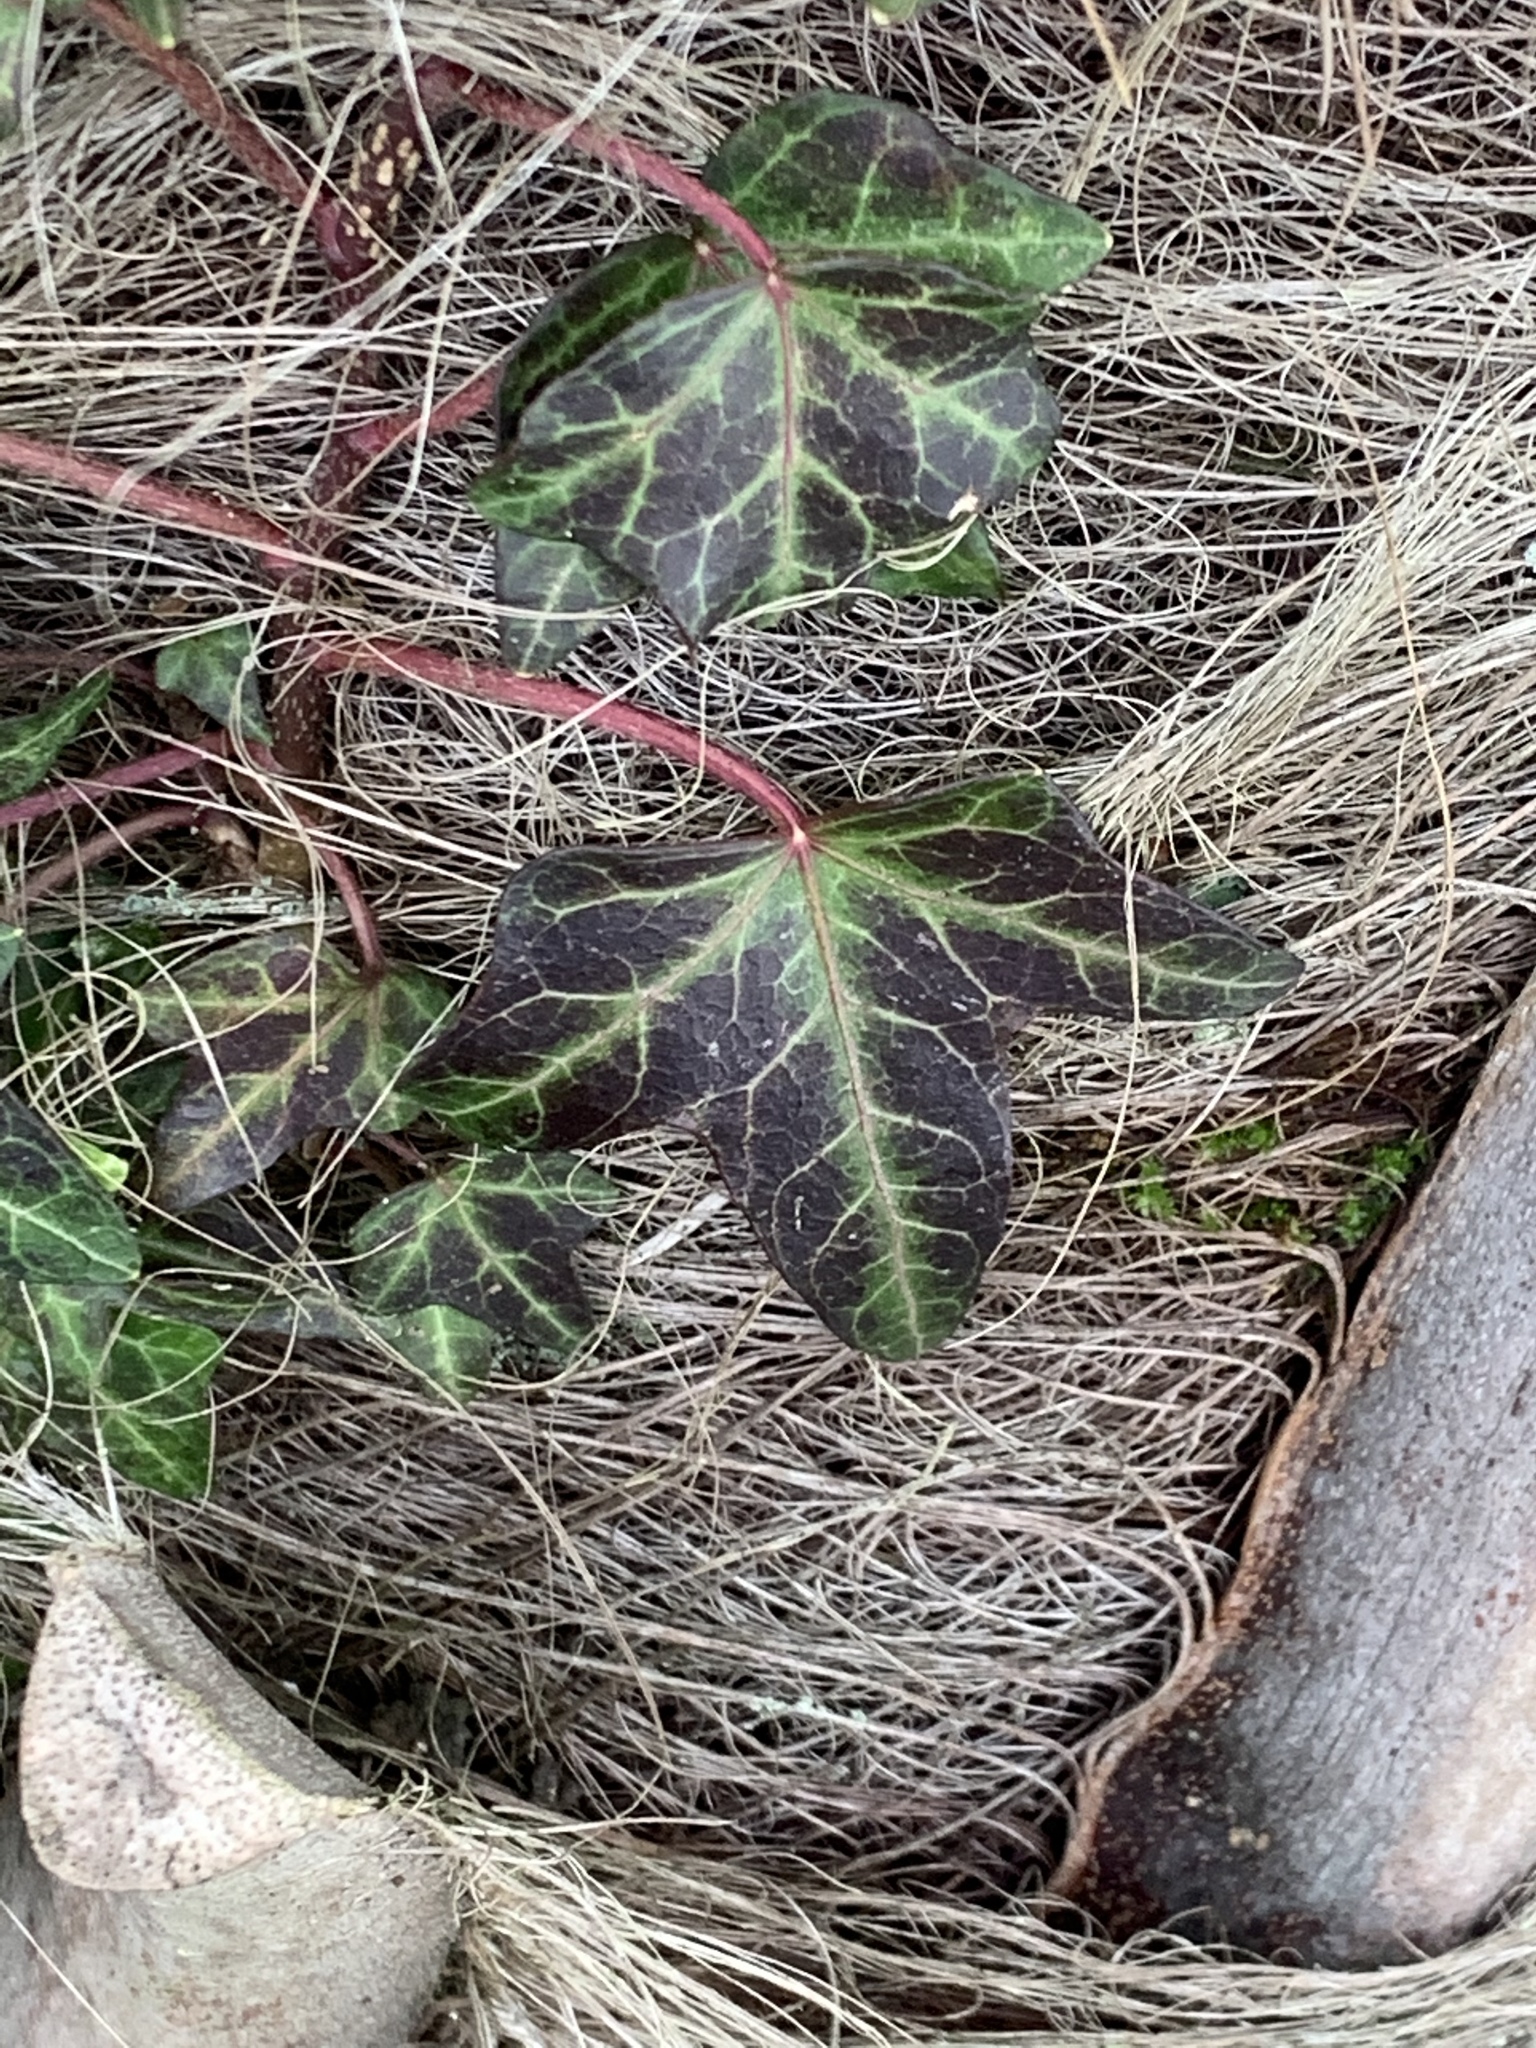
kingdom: Plantae
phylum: Tracheophyta
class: Magnoliopsida
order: Apiales
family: Araliaceae
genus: Hedera
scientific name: Hedera helix
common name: Ivy
